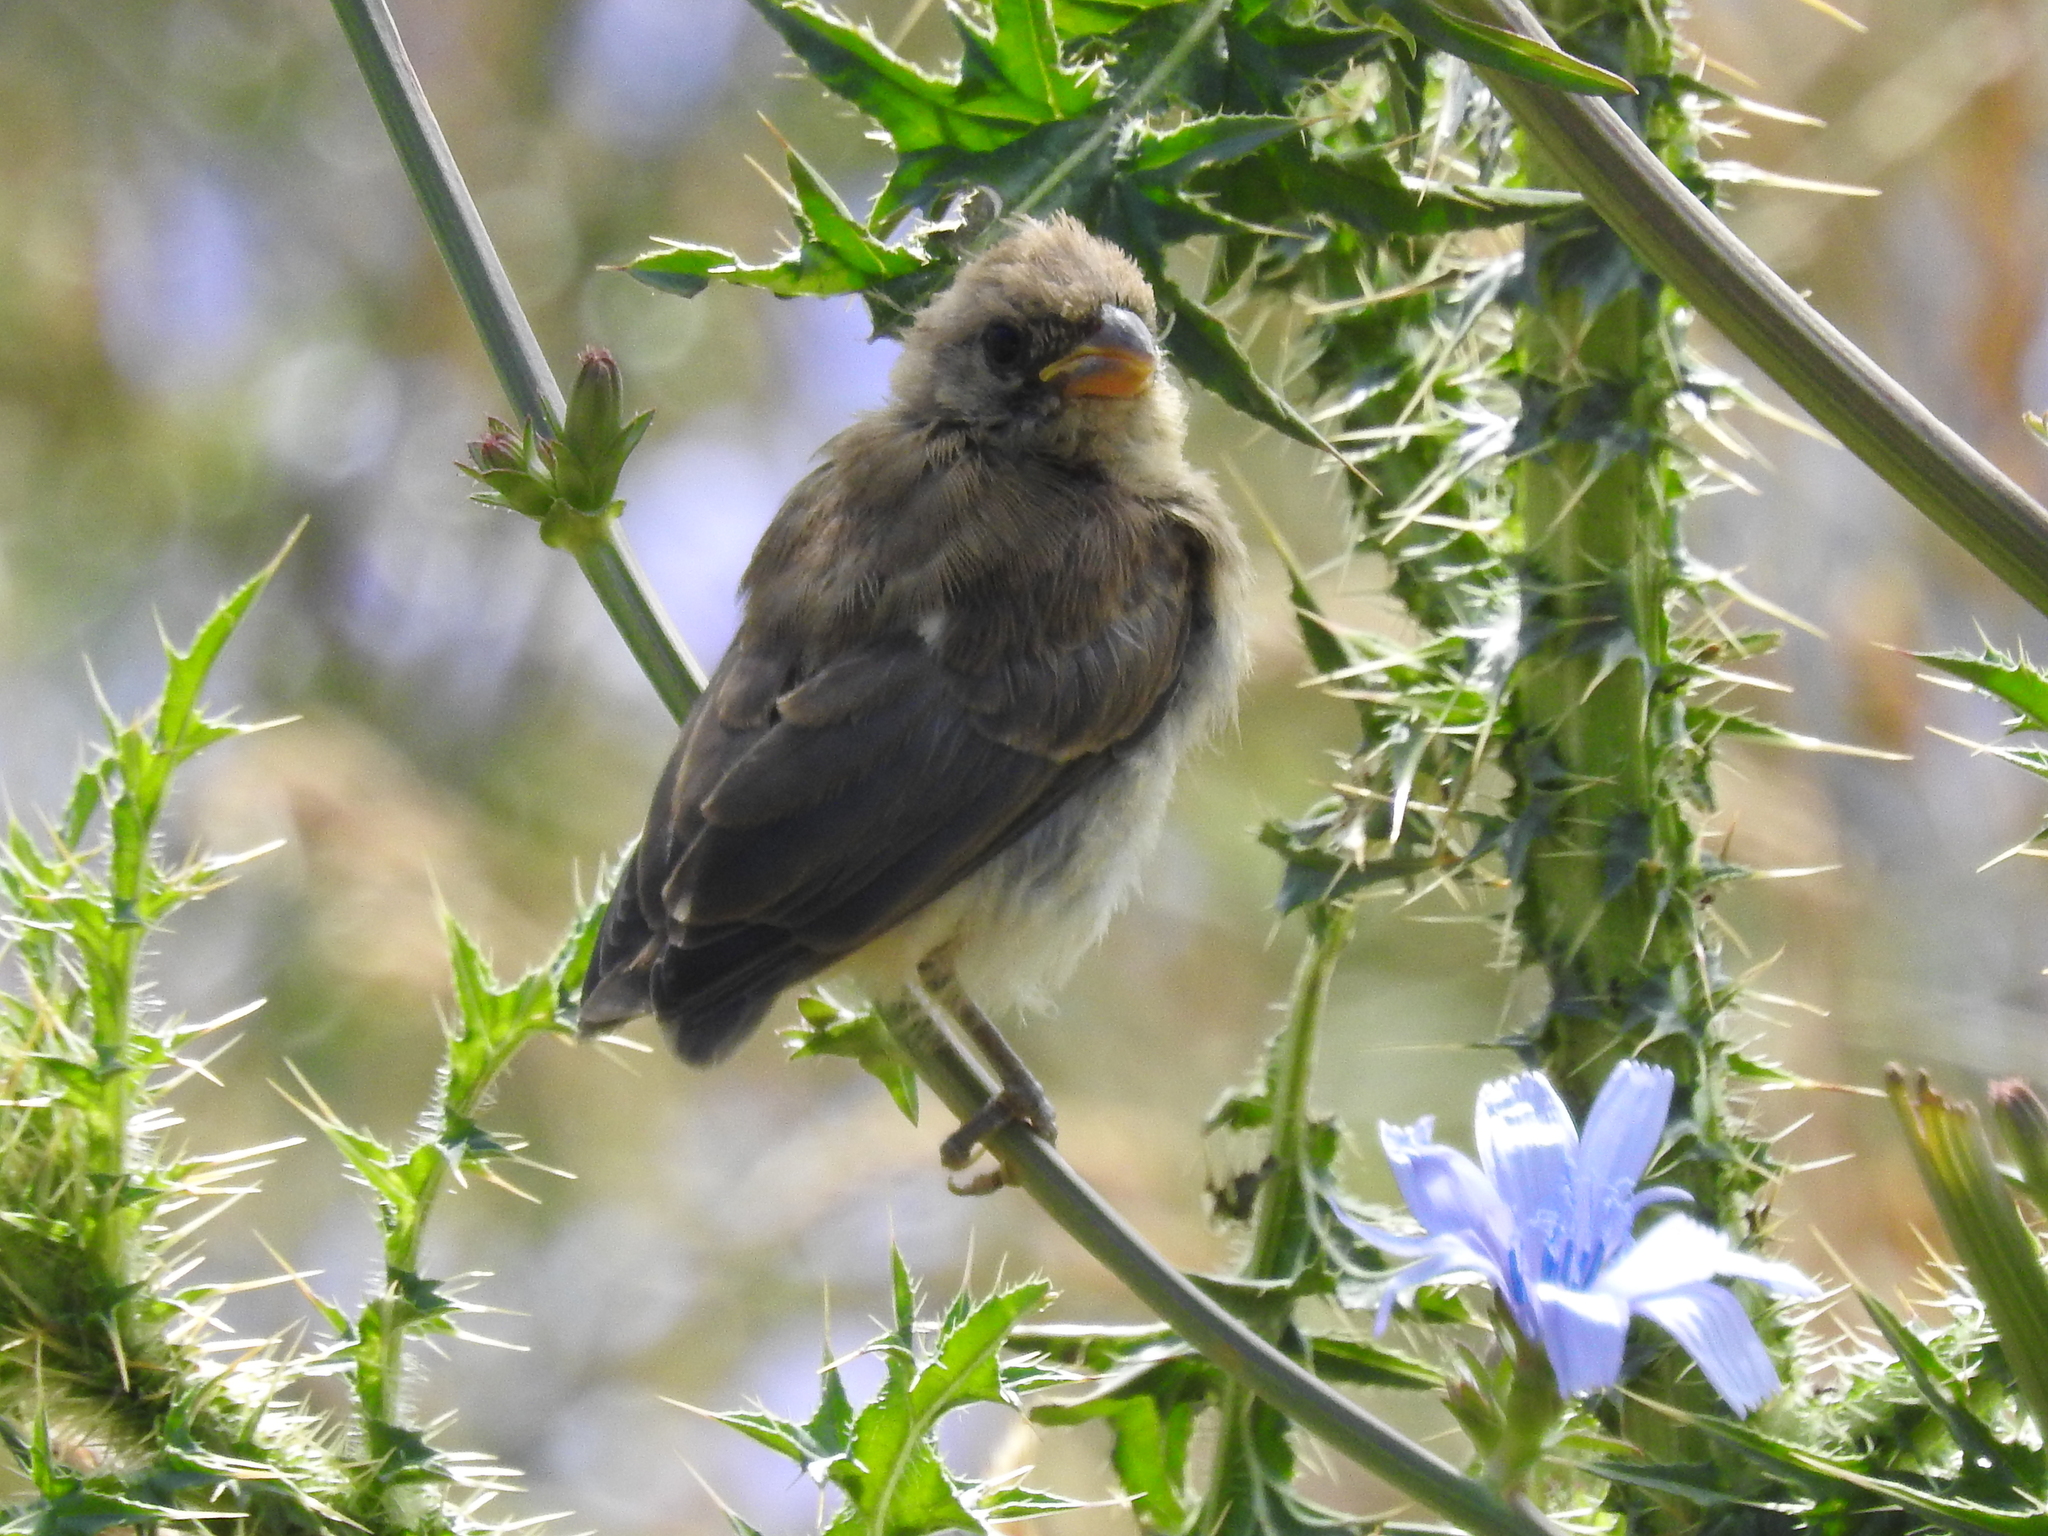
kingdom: Animalia
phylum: Chordata
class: Aves
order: Passeriformes
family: Thraupidae
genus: Sporophila
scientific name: Sporophila caerulescens
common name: Double-collared seedeater
